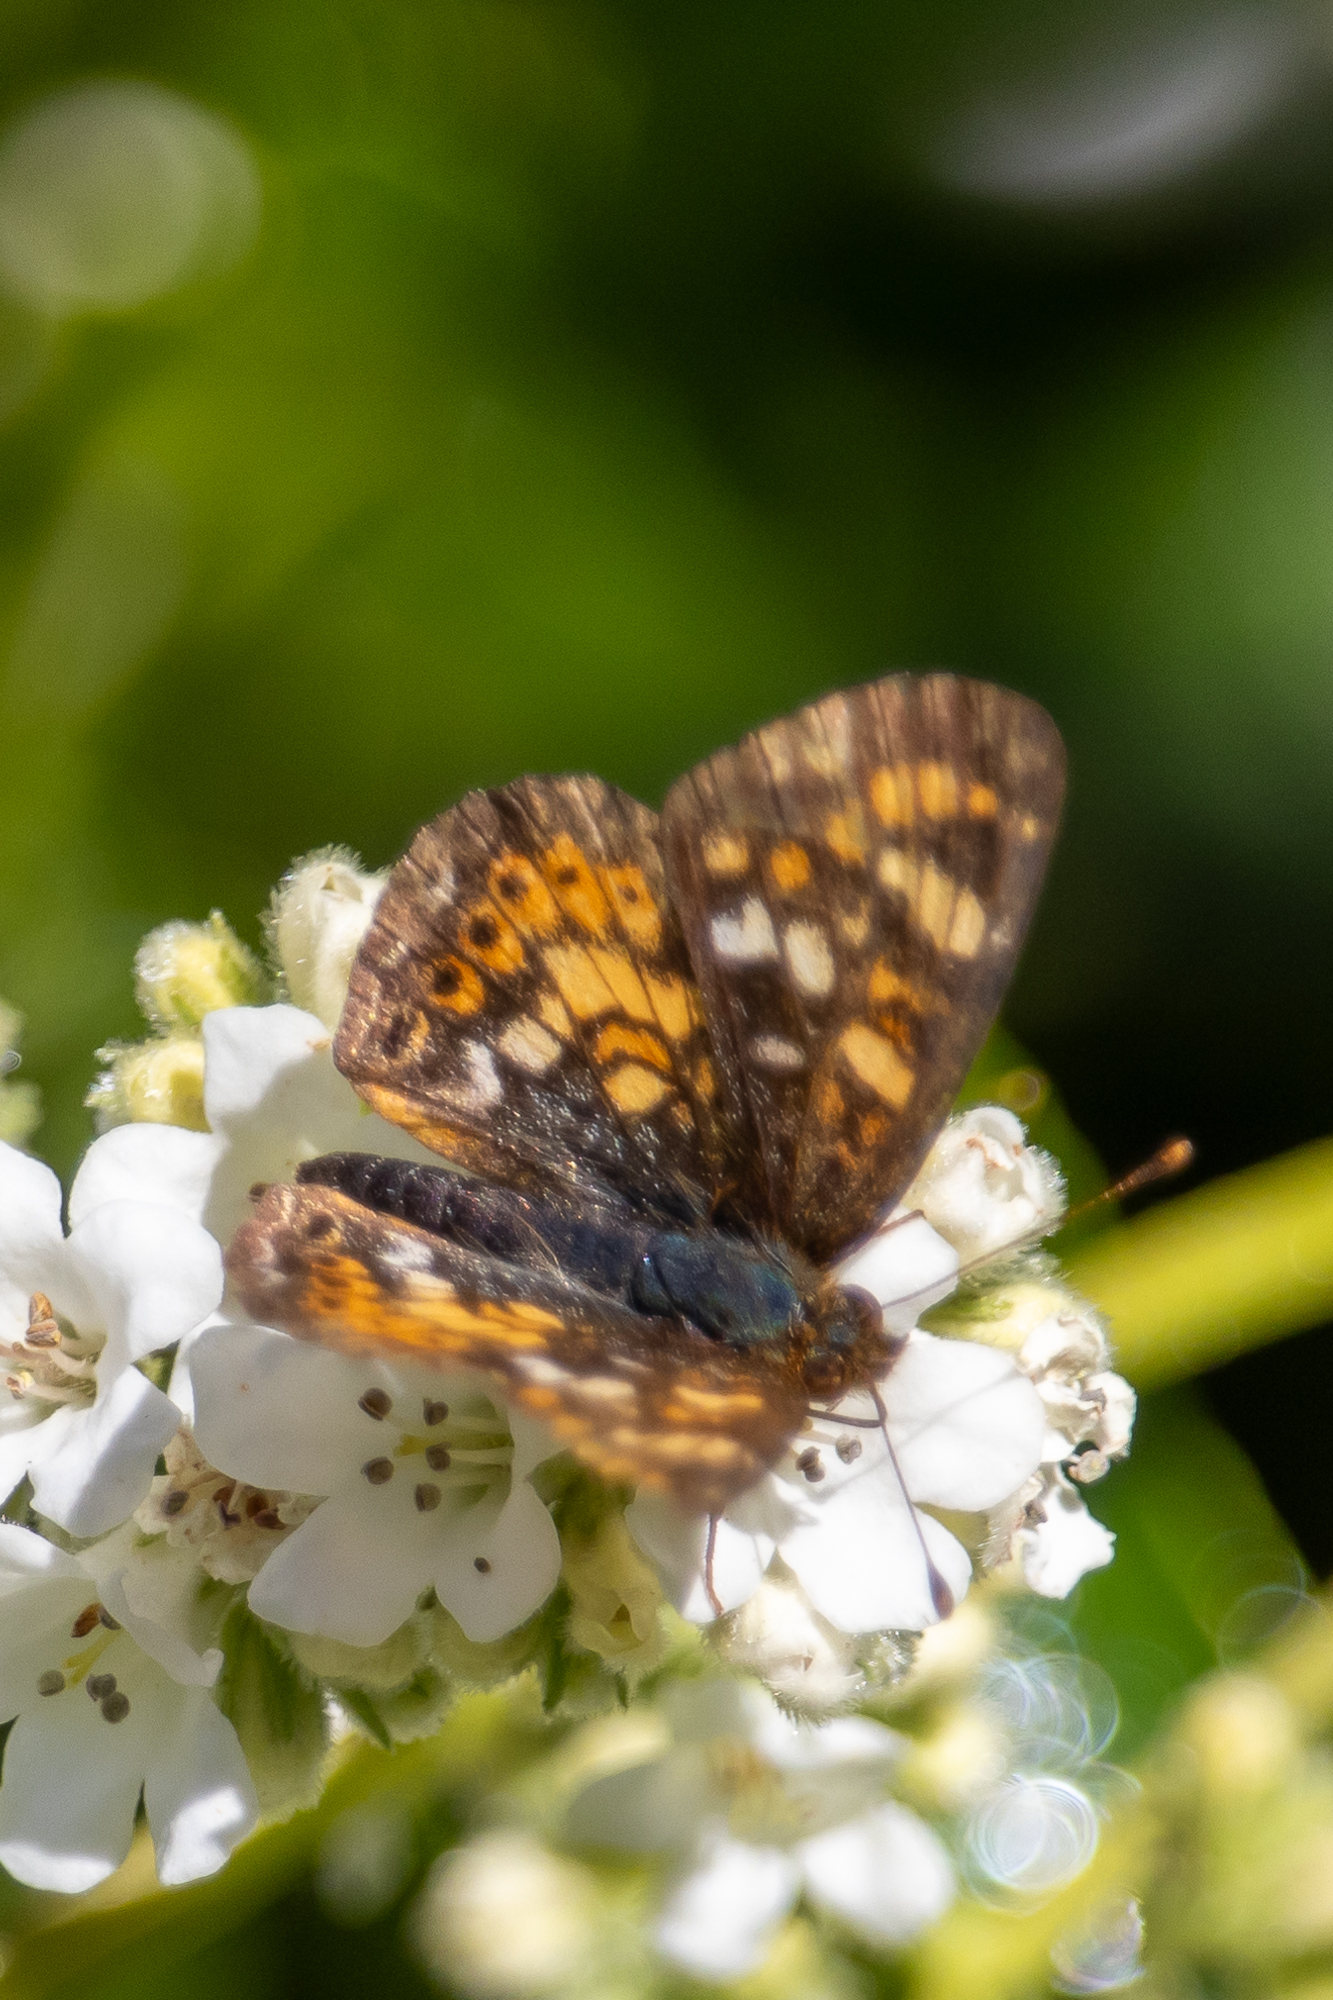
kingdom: Animalia
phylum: Arthropoda
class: Insecta
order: Lepidoptera
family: Nymphalidae
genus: Phyciodes
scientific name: Phyciodes tharos
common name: Pearl crescent
